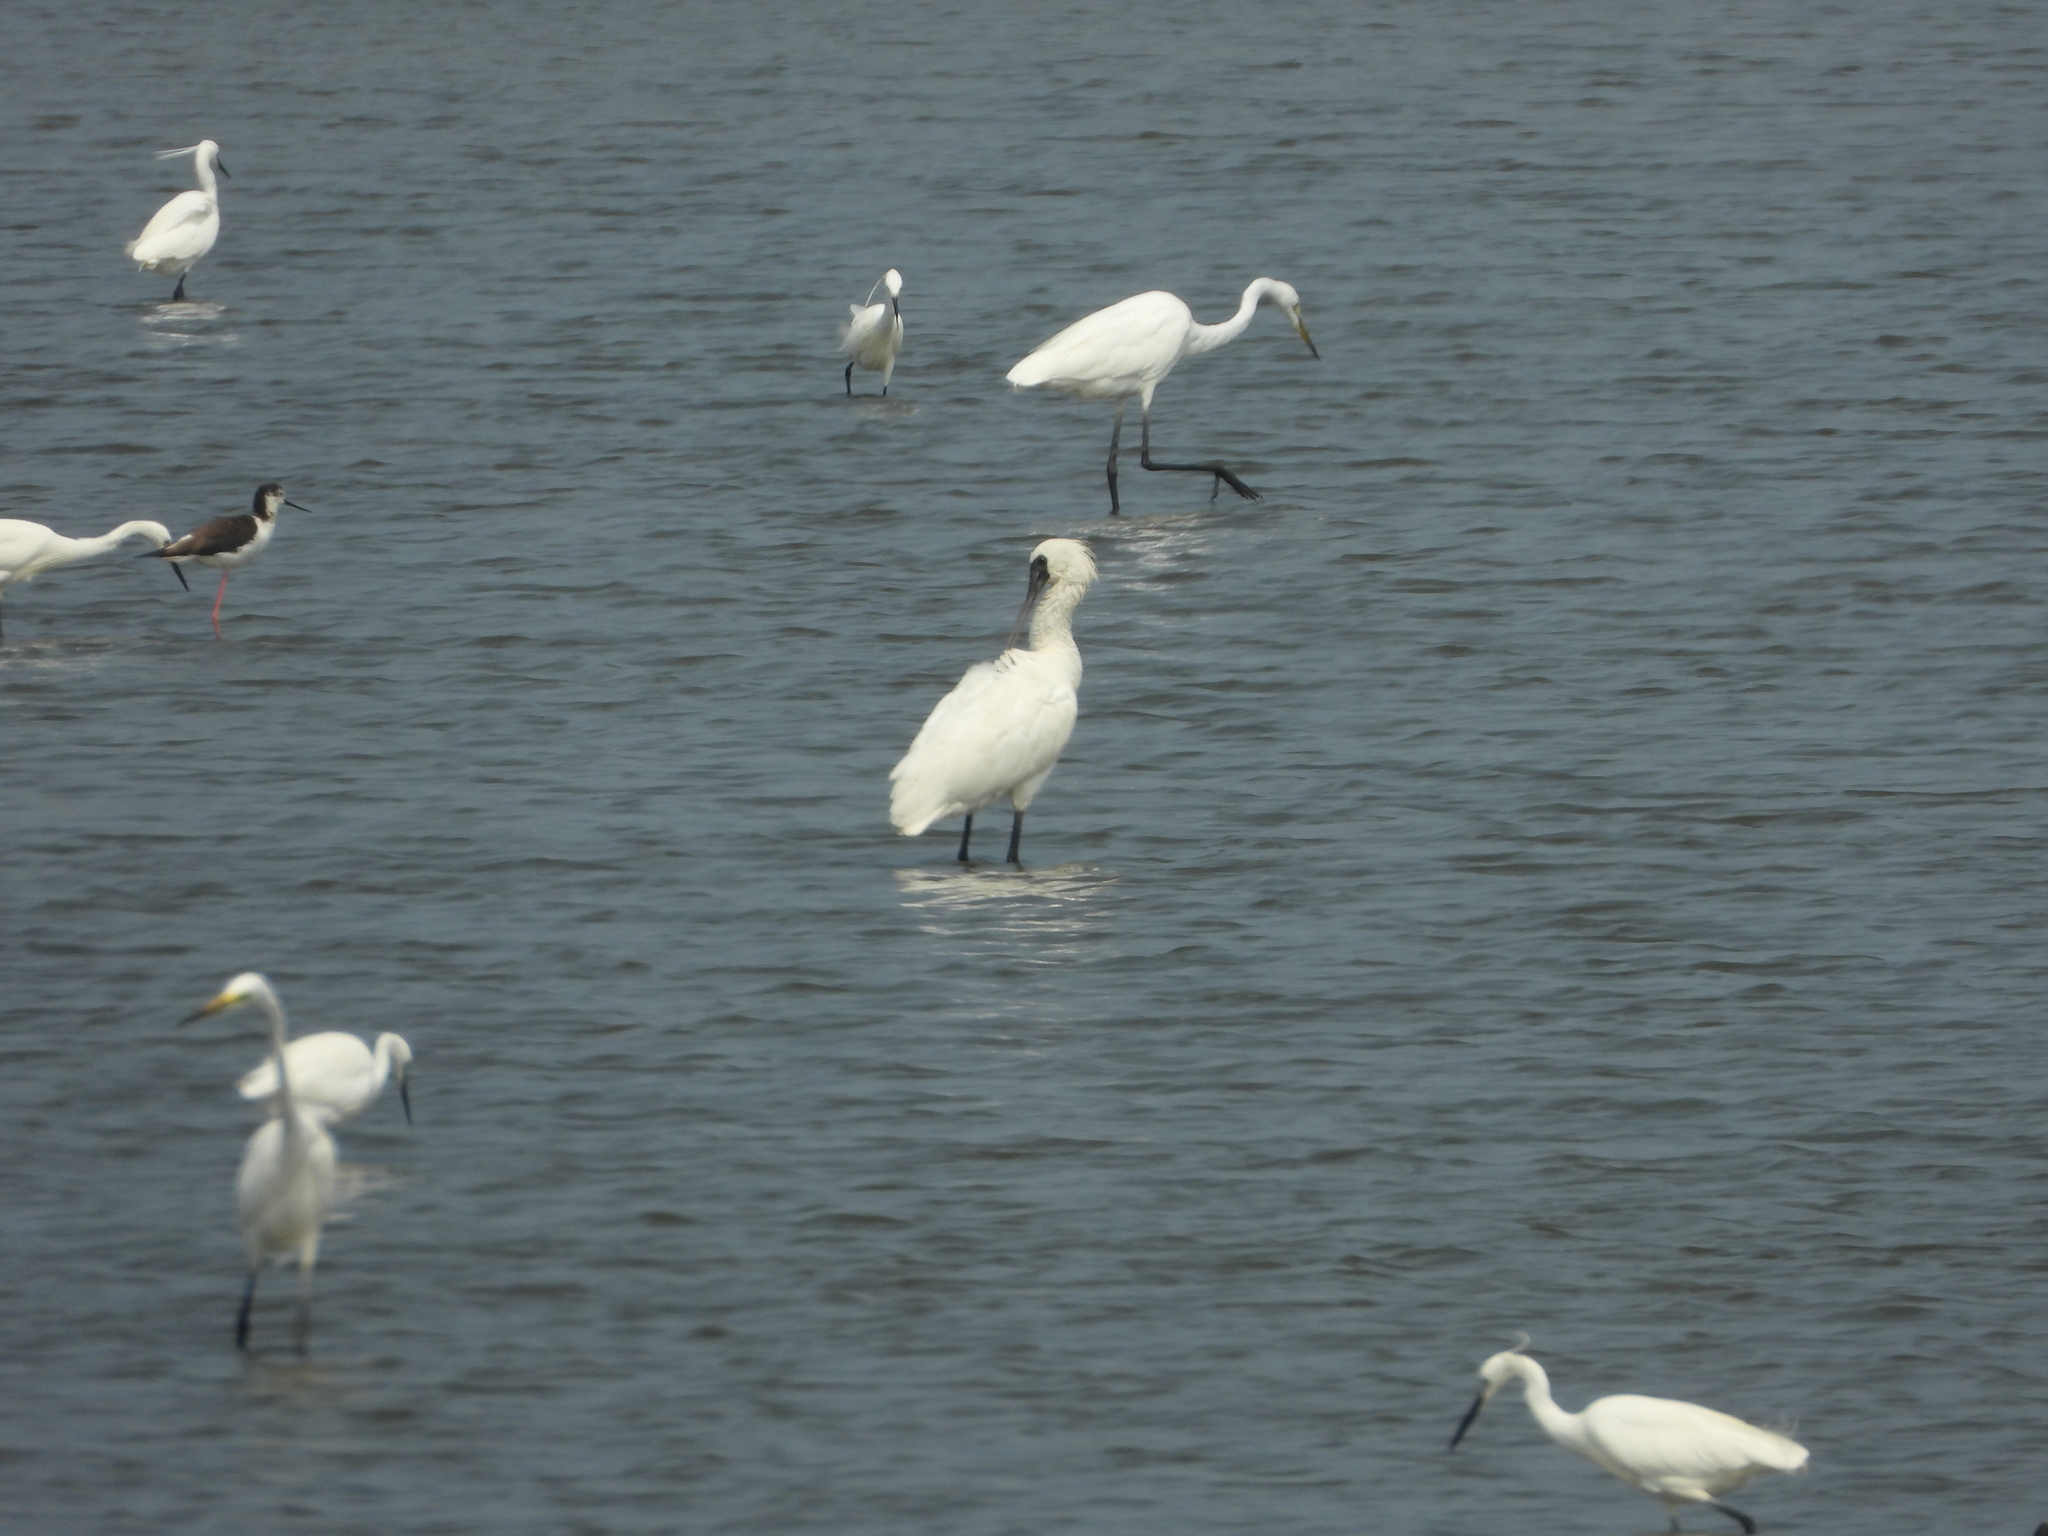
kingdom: Animalia
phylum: Chordata
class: Aves
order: Pelecaniformes
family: Threskiornithidae
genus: Platalea
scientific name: Platalea minor
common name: Black-faced spoonbill
